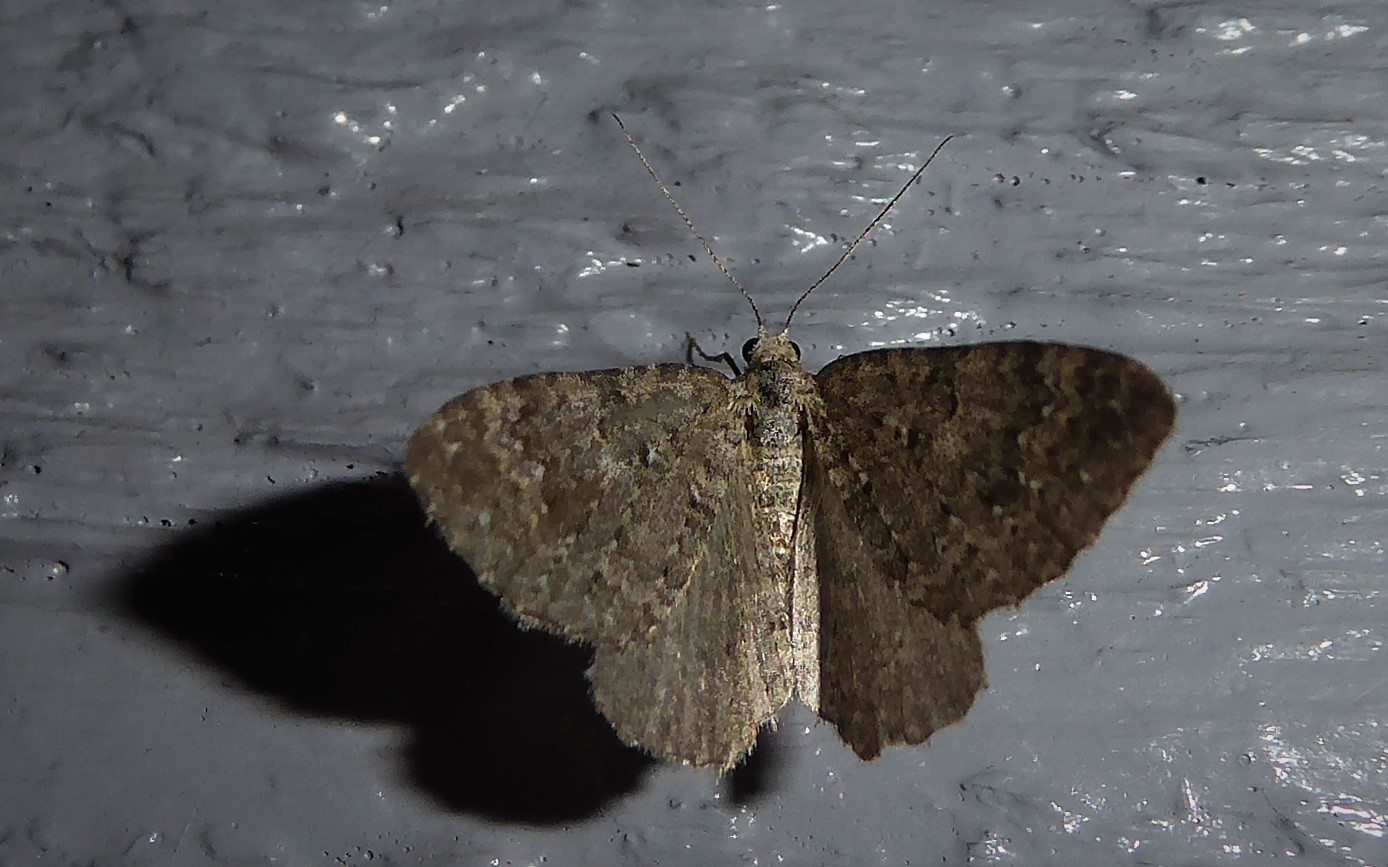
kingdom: Animalia
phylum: Arthropoda
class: Insecta
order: Lepidoptera
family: Geometridae
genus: Helastia
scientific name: Helastia corcularia
